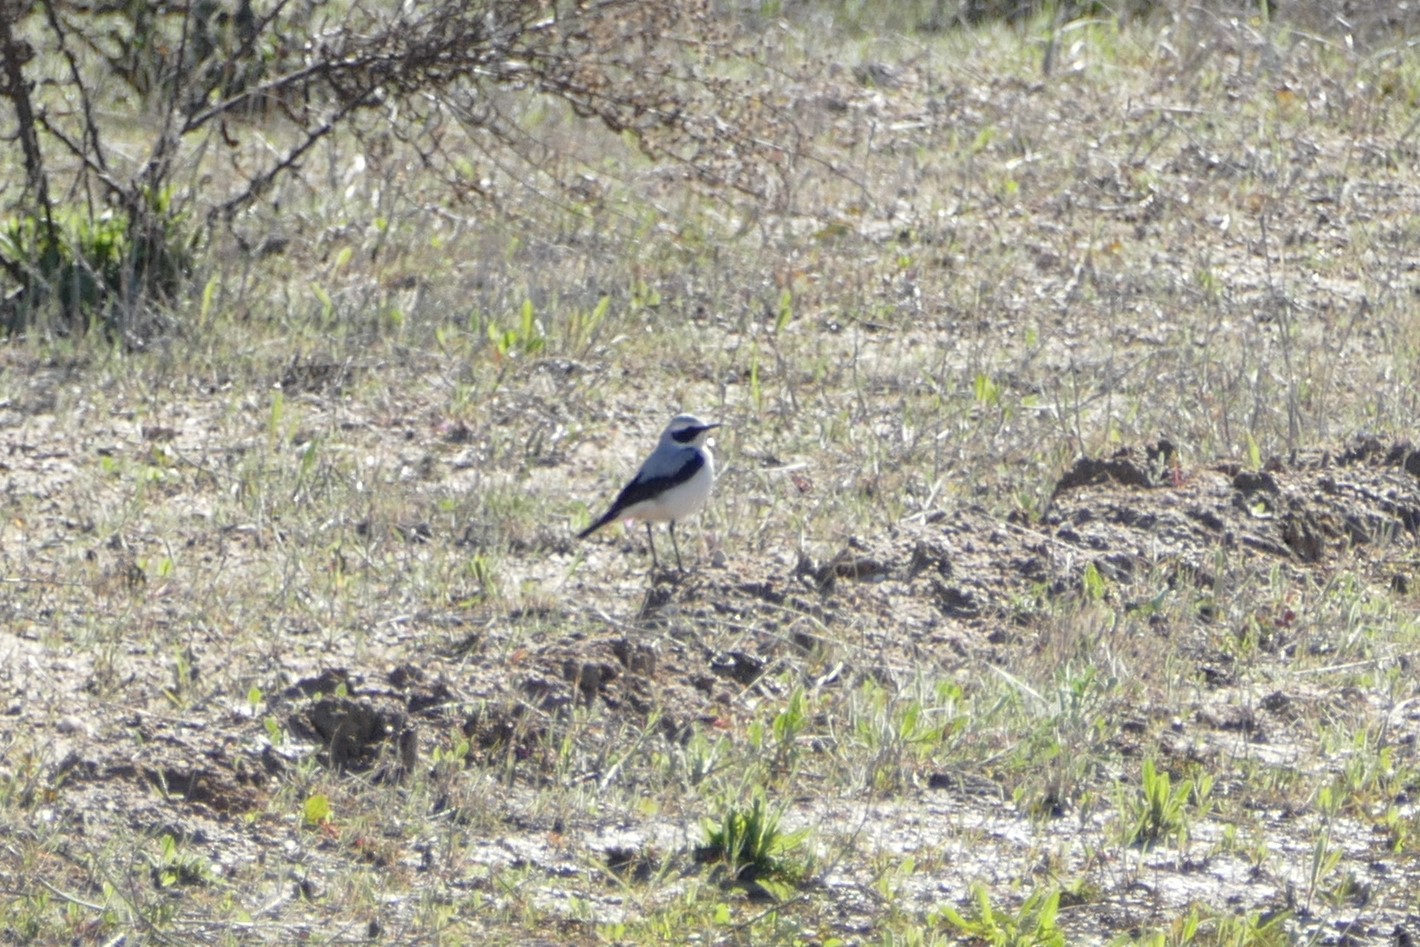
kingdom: Animalia
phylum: Chordata
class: Aves
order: Passeriformes
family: Muscicapidae
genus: Oenanthe
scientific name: Oenanthe oenanthe
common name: Northern wheatear
